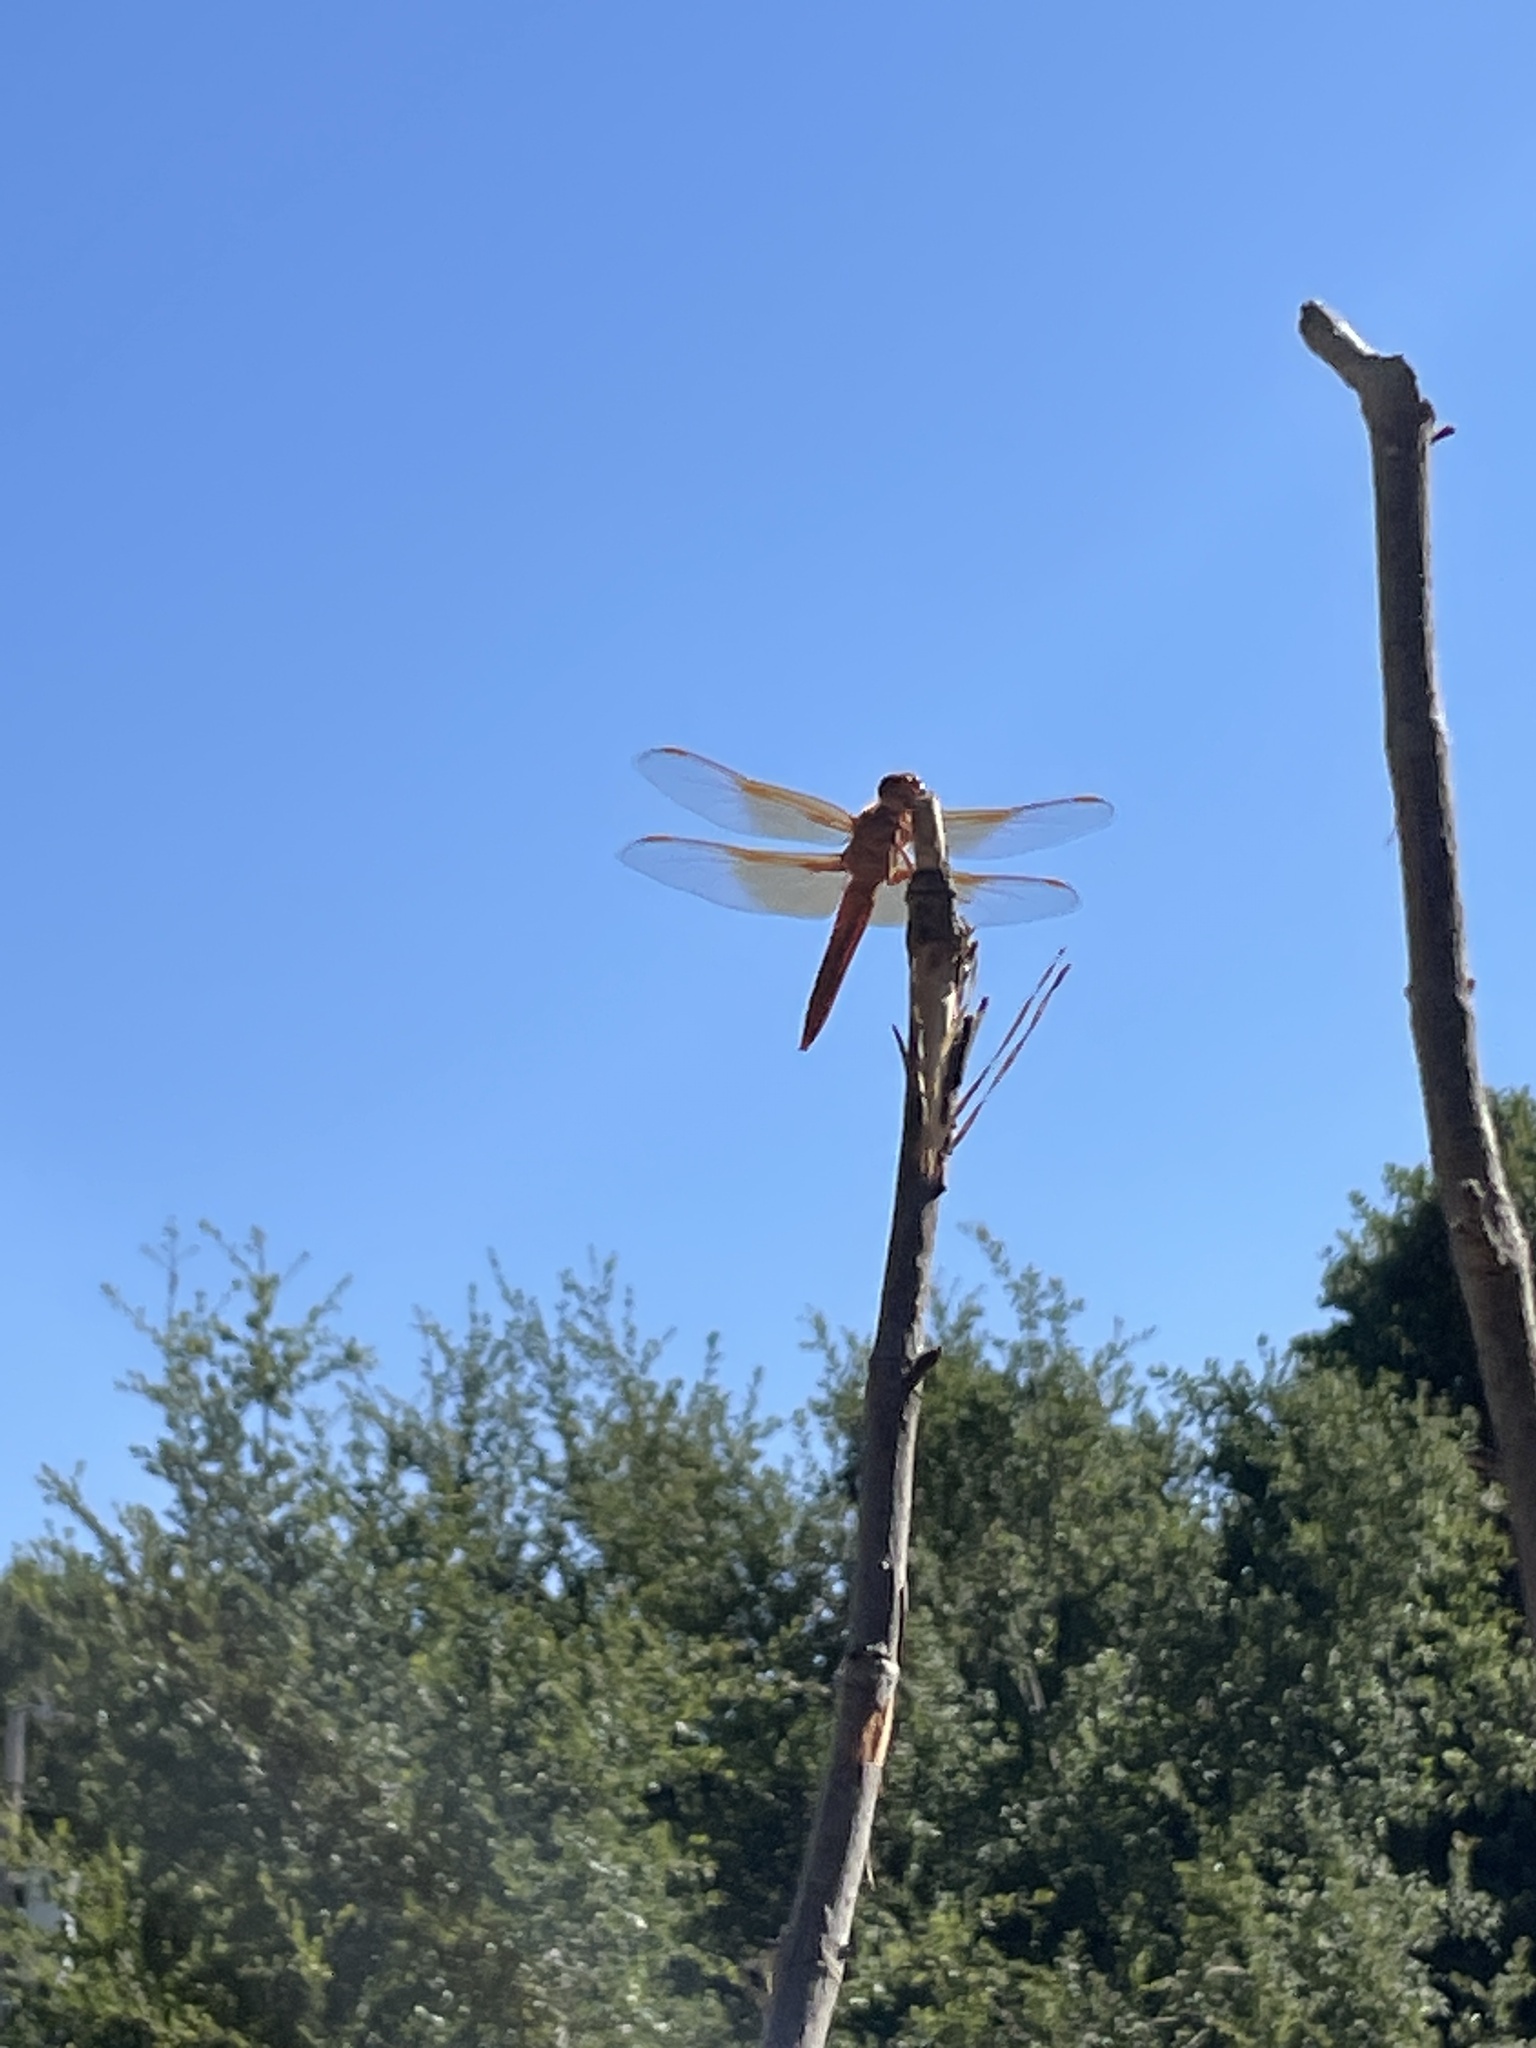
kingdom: Animalia
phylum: Arthropoda
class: Insecta
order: Odonata
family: Libellulidae
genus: Libellula
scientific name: Libellula saturata
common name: Flame skimmer
